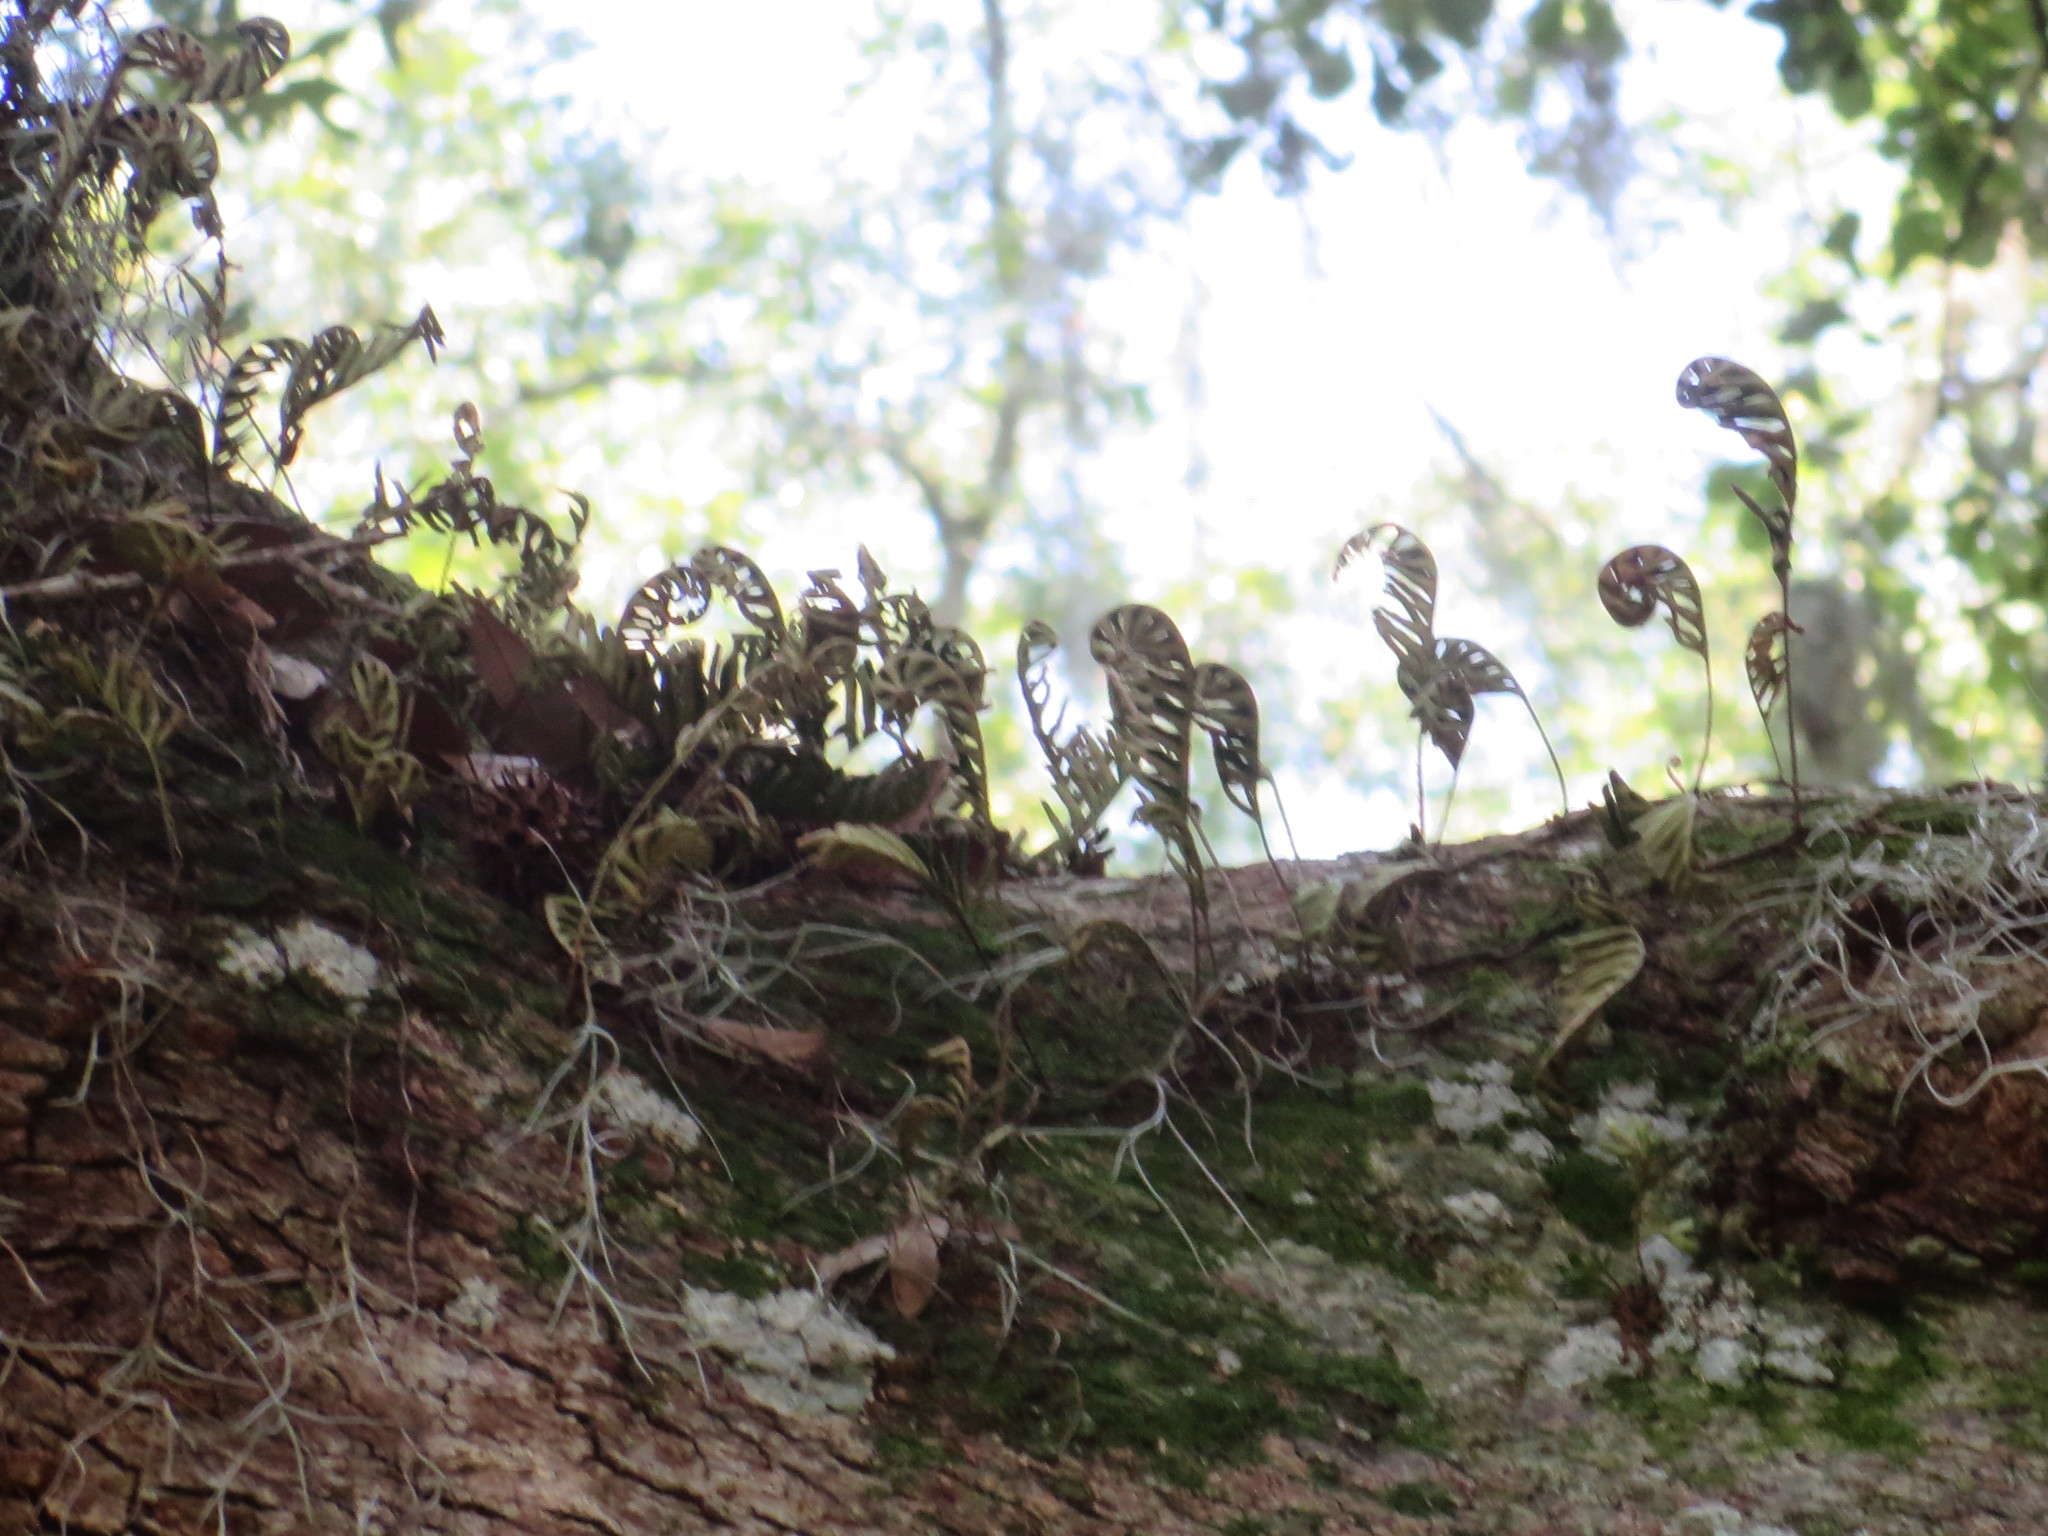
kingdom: Plantae
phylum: Tracheophyta
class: Polypodiopsida
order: Polypodiales
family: Polypodiaceae
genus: Pleopeltis
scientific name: Pleopeltis michauxiana
